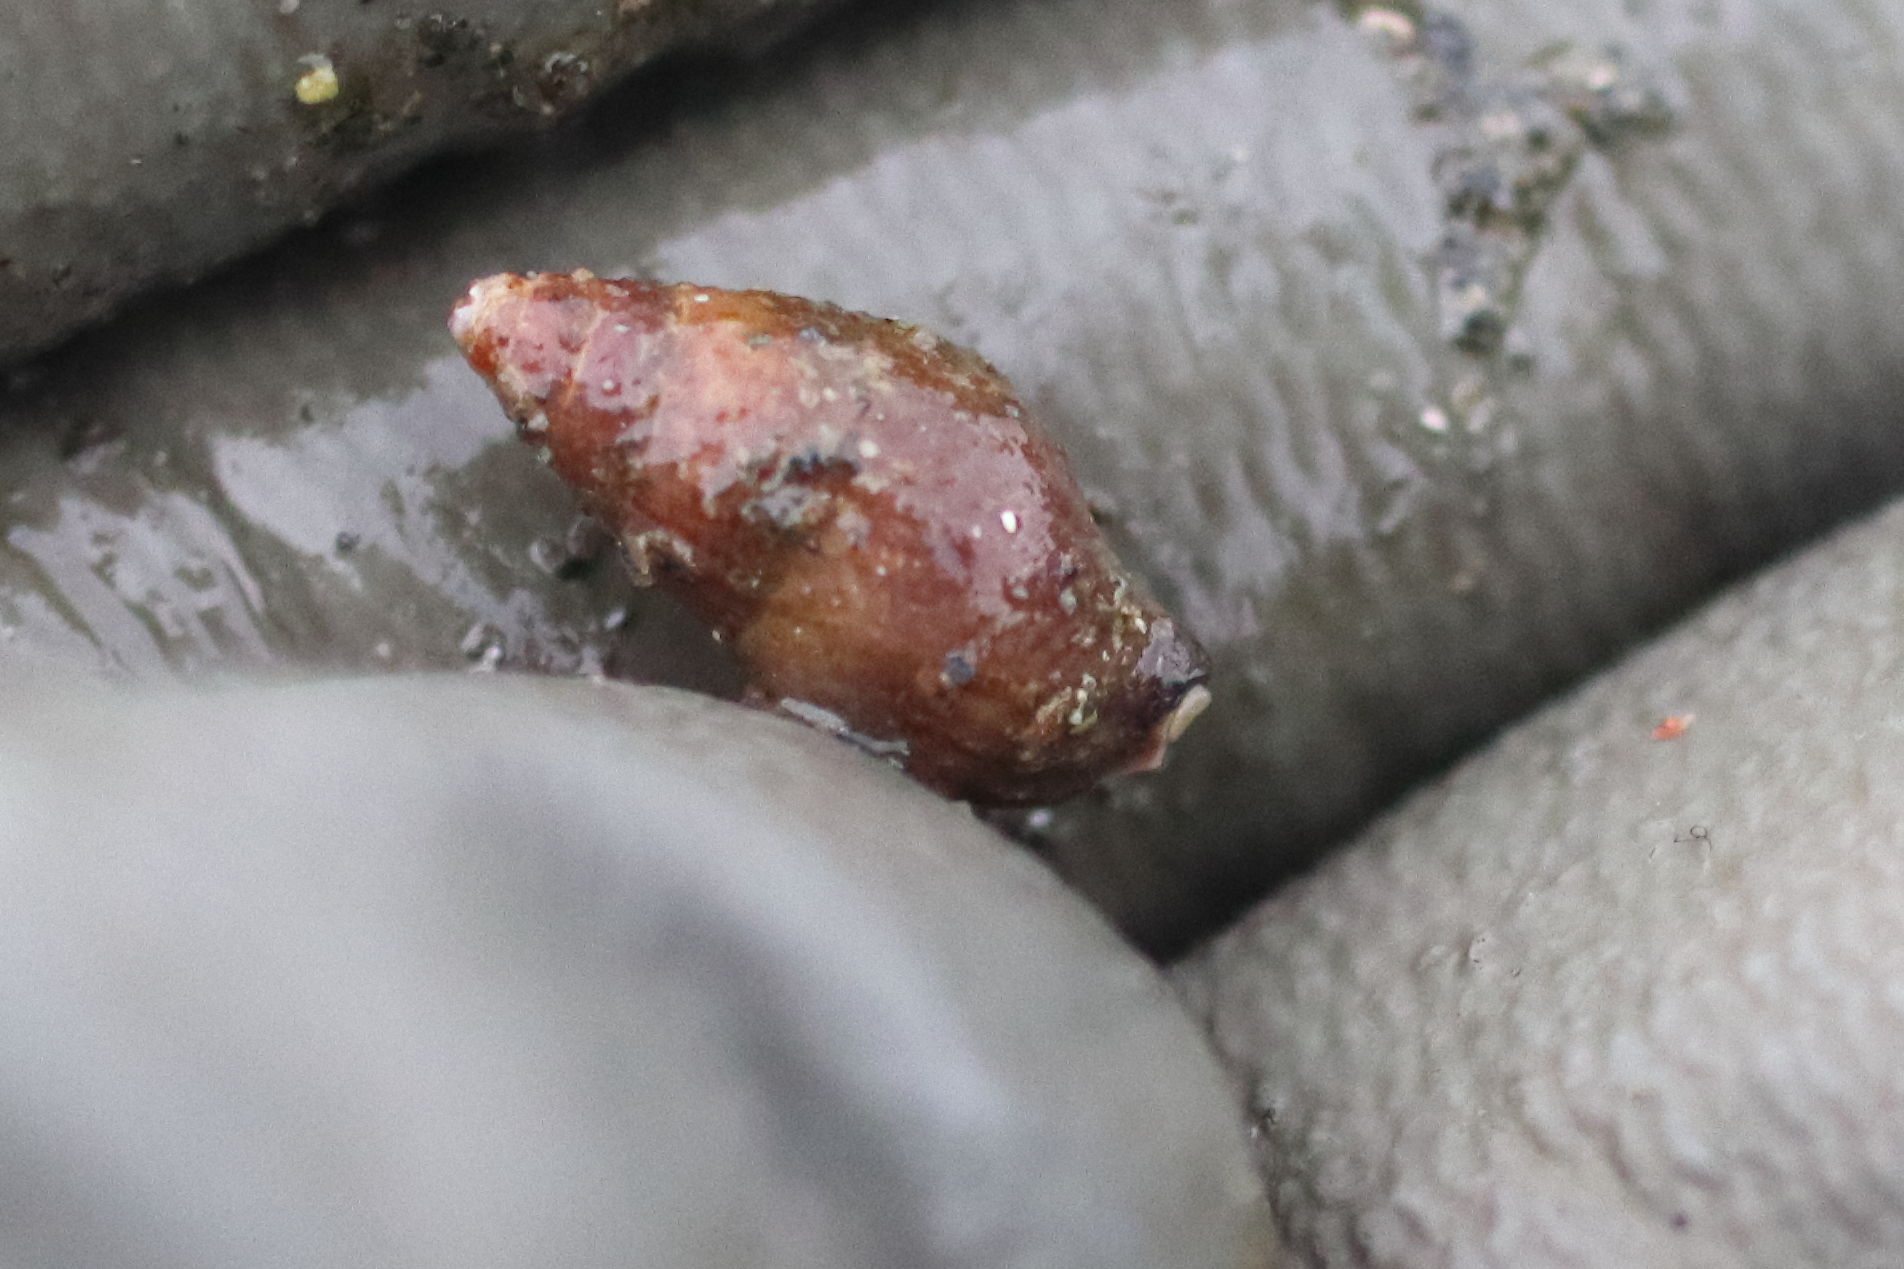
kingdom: Animalia
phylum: Mollusca
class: Gastropoda
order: Neogastropoda
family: Columbellidae
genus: Alia
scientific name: Alia carinata
